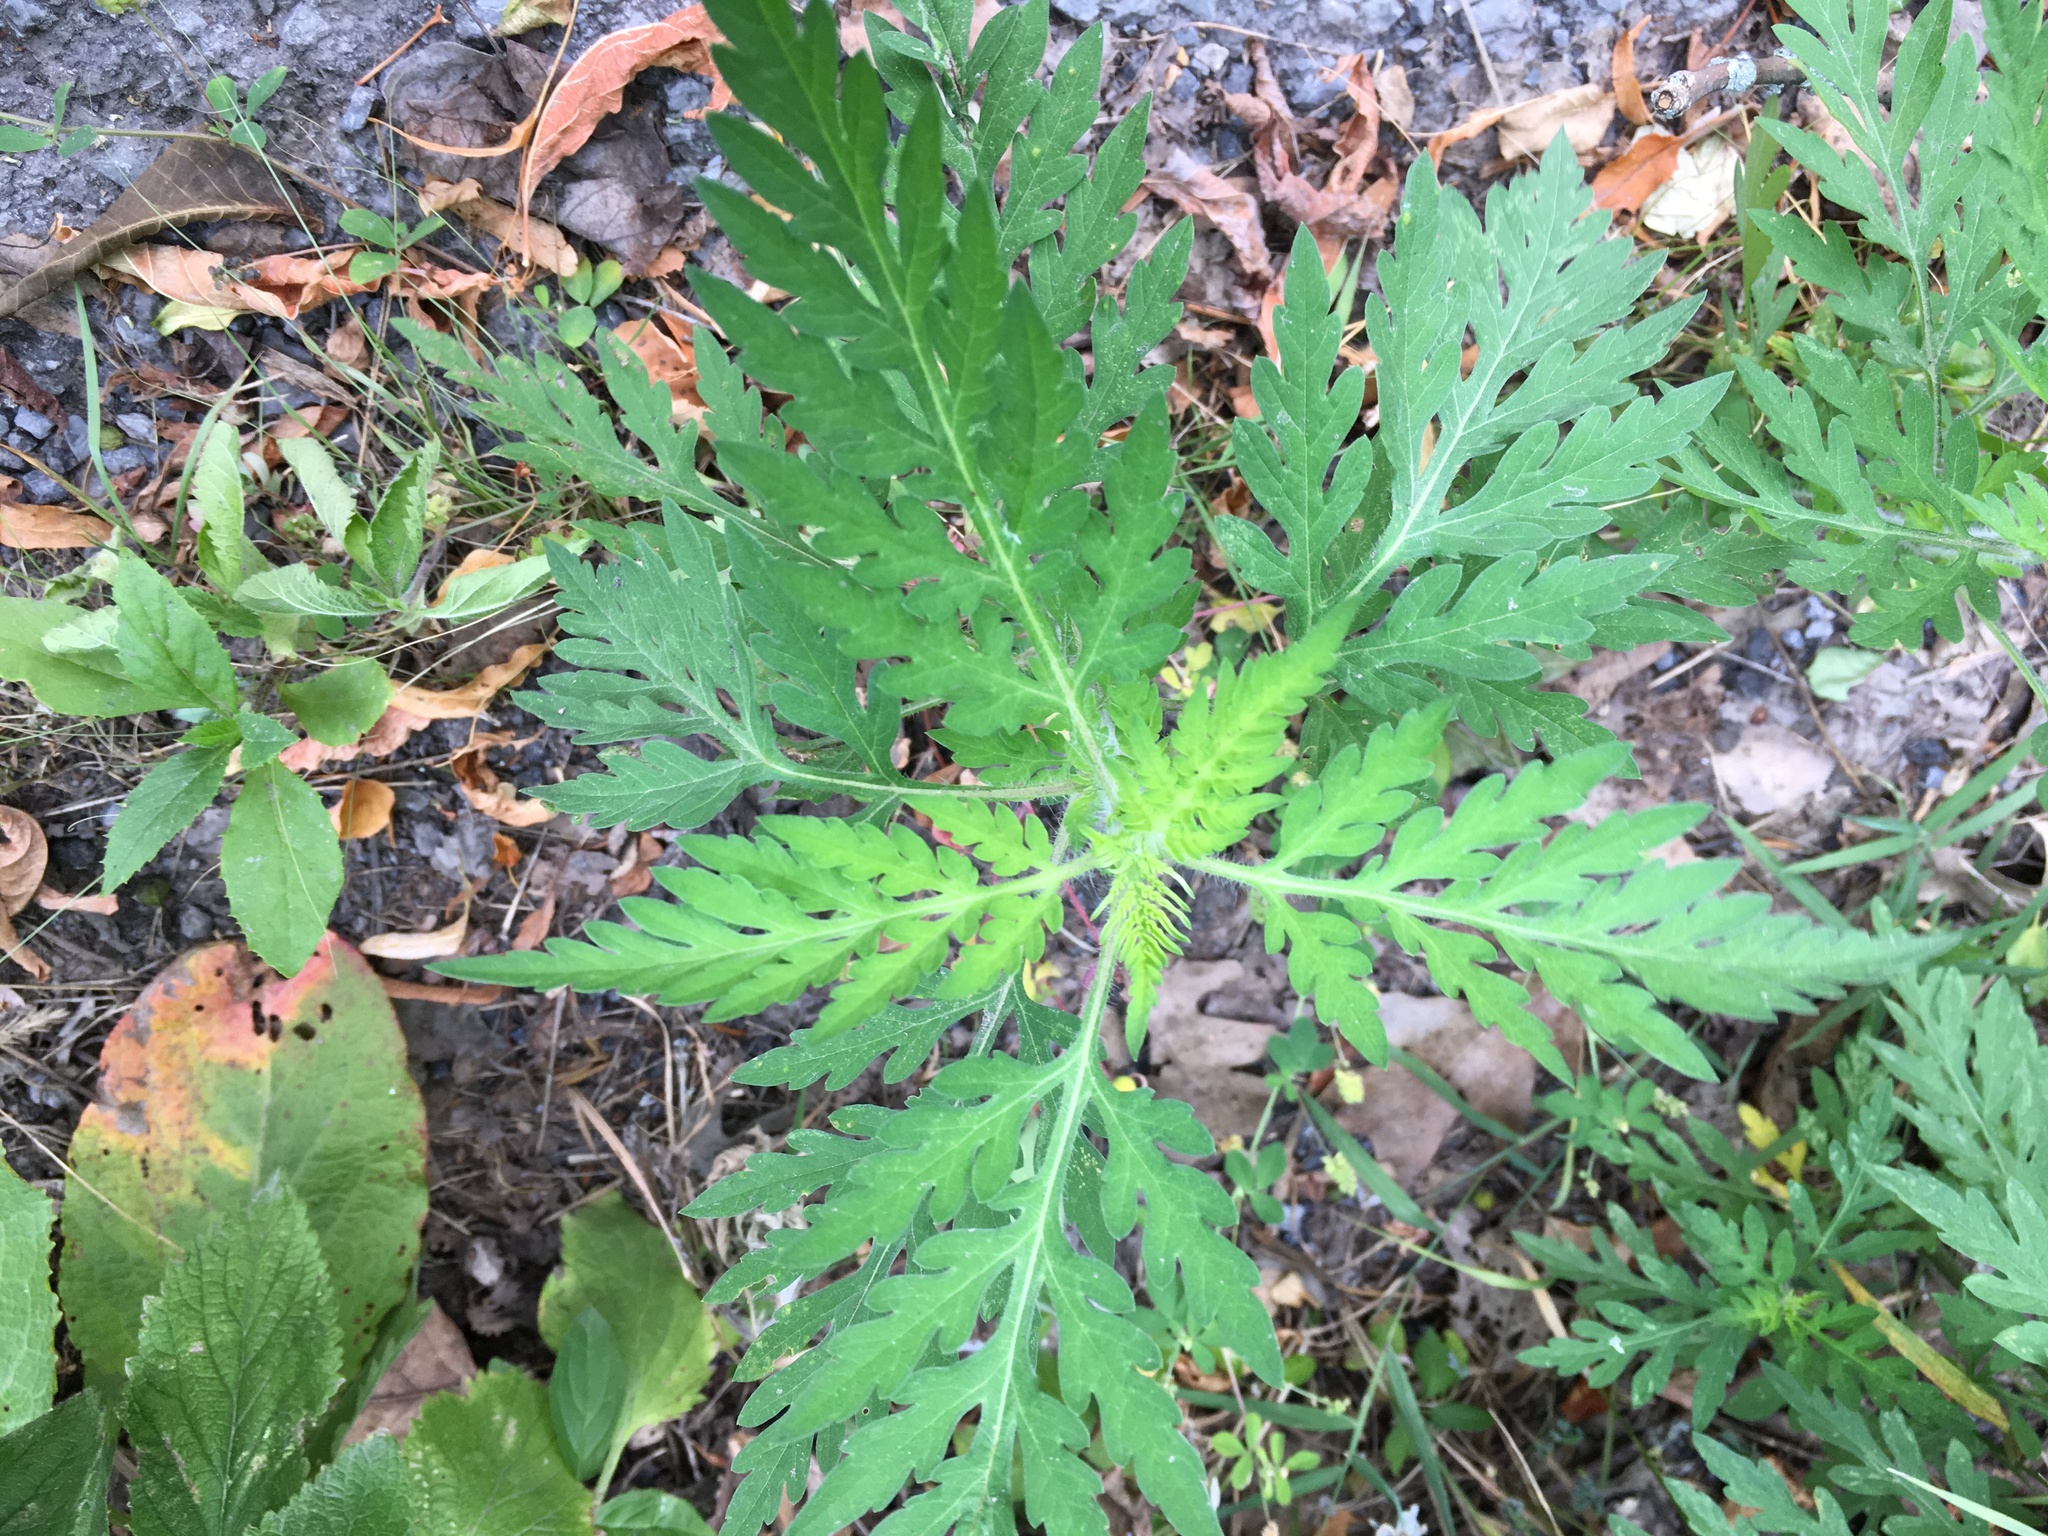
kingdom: Plantae
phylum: Tracheophyta
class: Magnoliopsida
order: Asterales
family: Asteraceae
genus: Ambrosia
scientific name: Ambrosia artemisiifolia
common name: Annual ragweed
